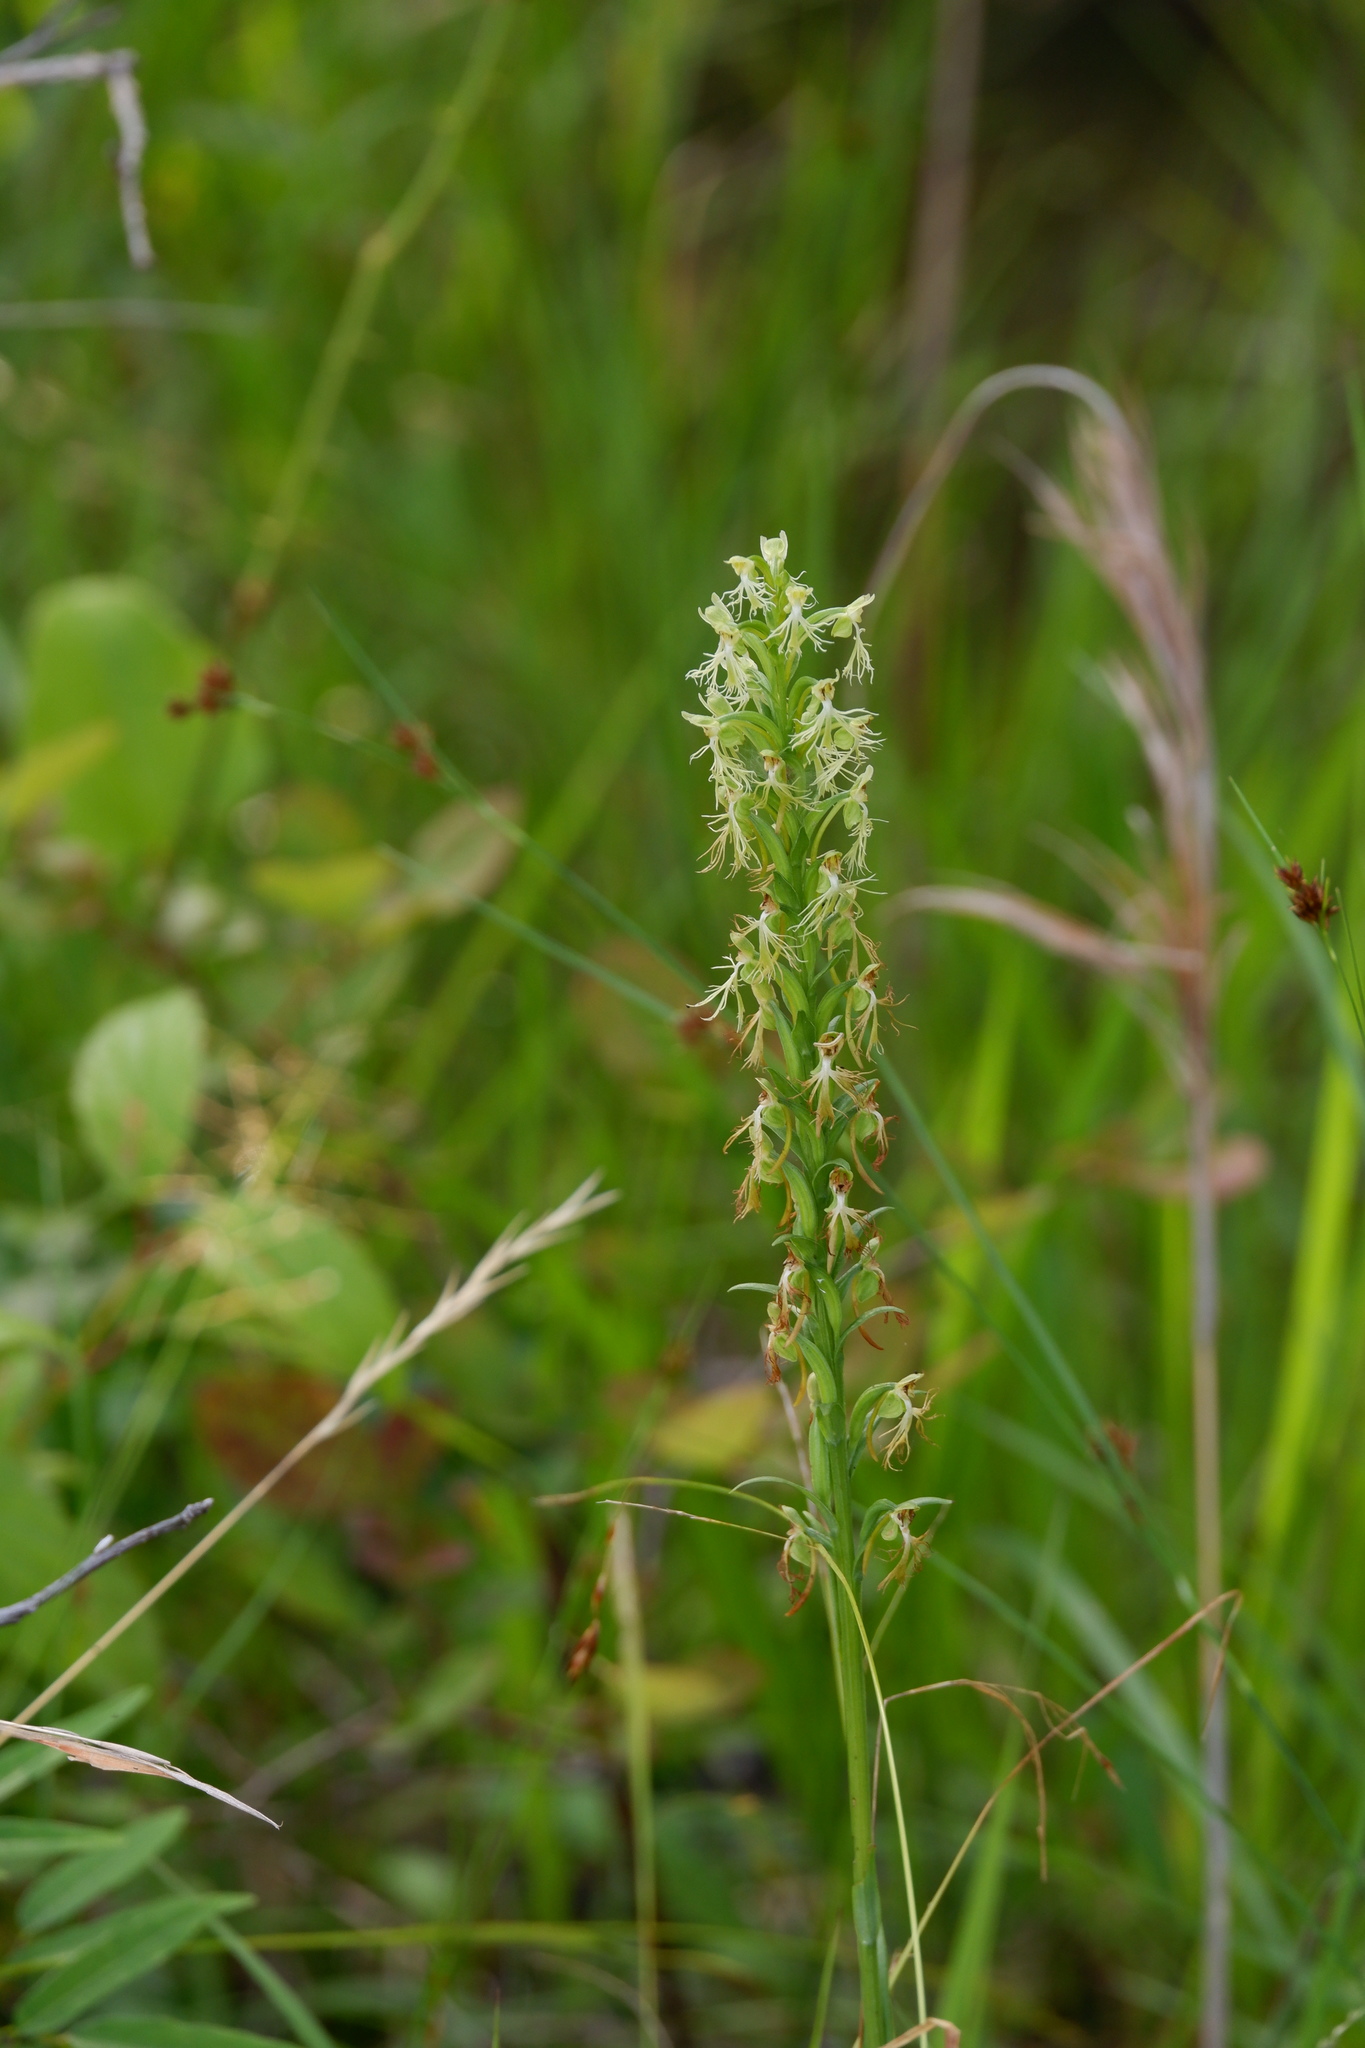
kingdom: Plantae
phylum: Tracheophyta
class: Liliopsida
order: Asparagales
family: Orchidaceae
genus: Platanthera
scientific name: Platanthera lacera
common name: Green fringed orchid
